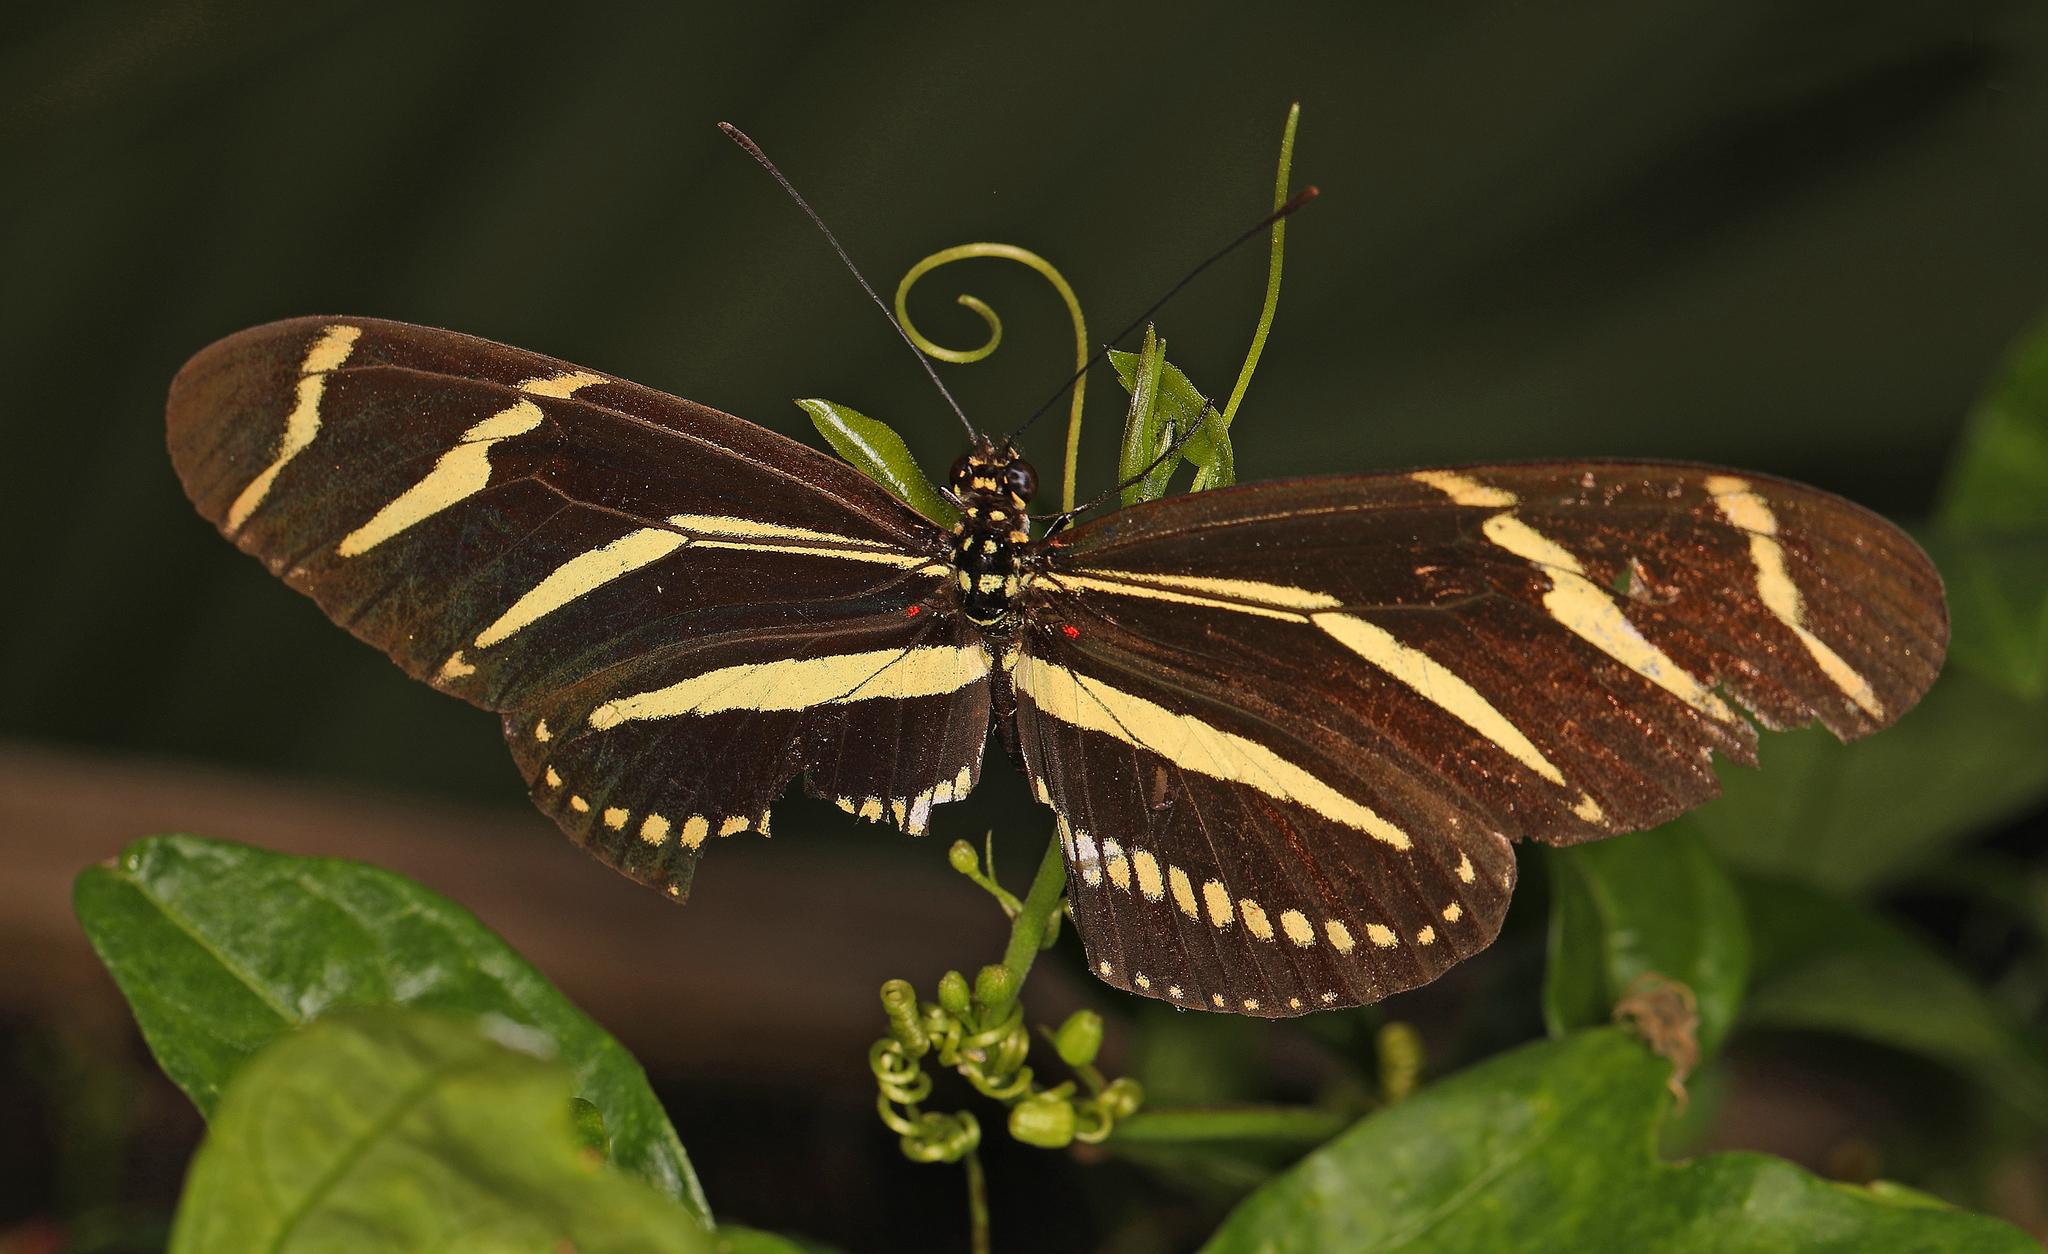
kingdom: Animalia
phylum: Arthropoda
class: Insecta
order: Lepidoptera
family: Nymphalidae
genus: Heliconius
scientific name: Heliconius charithonia
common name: Zebra long wing
